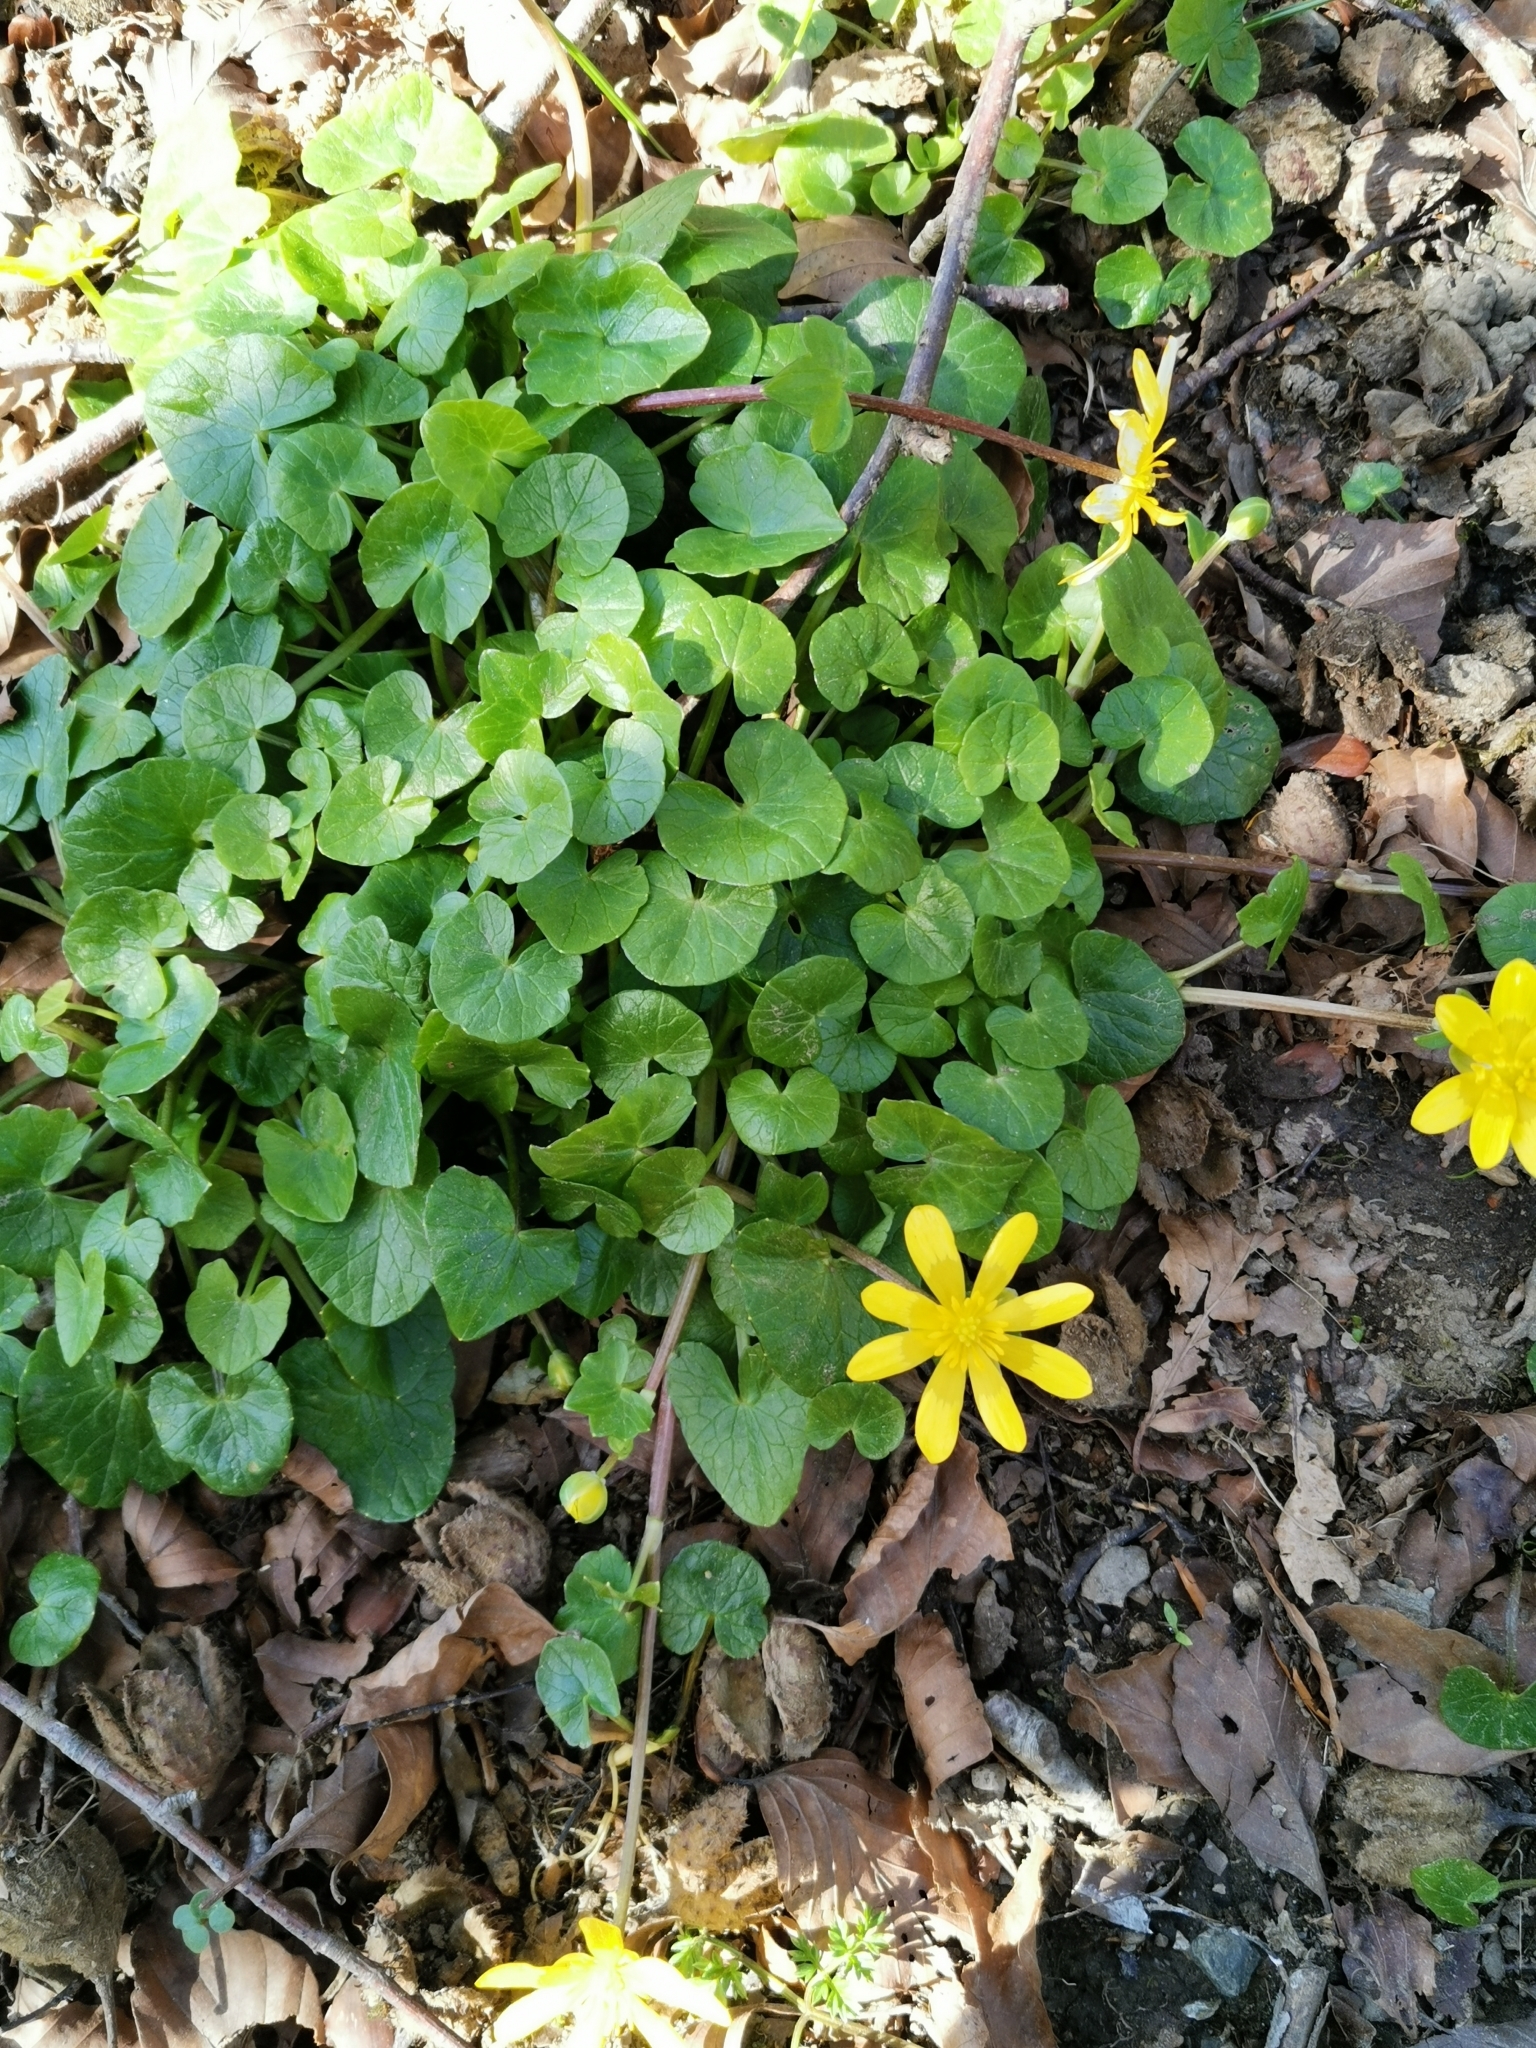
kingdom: Plantae
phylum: Tracheophyta
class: Magnoliopsida
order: Ranunculales
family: Ranunculaceae
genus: Ficaria
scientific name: Ficaria verna
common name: Lesser celandine
